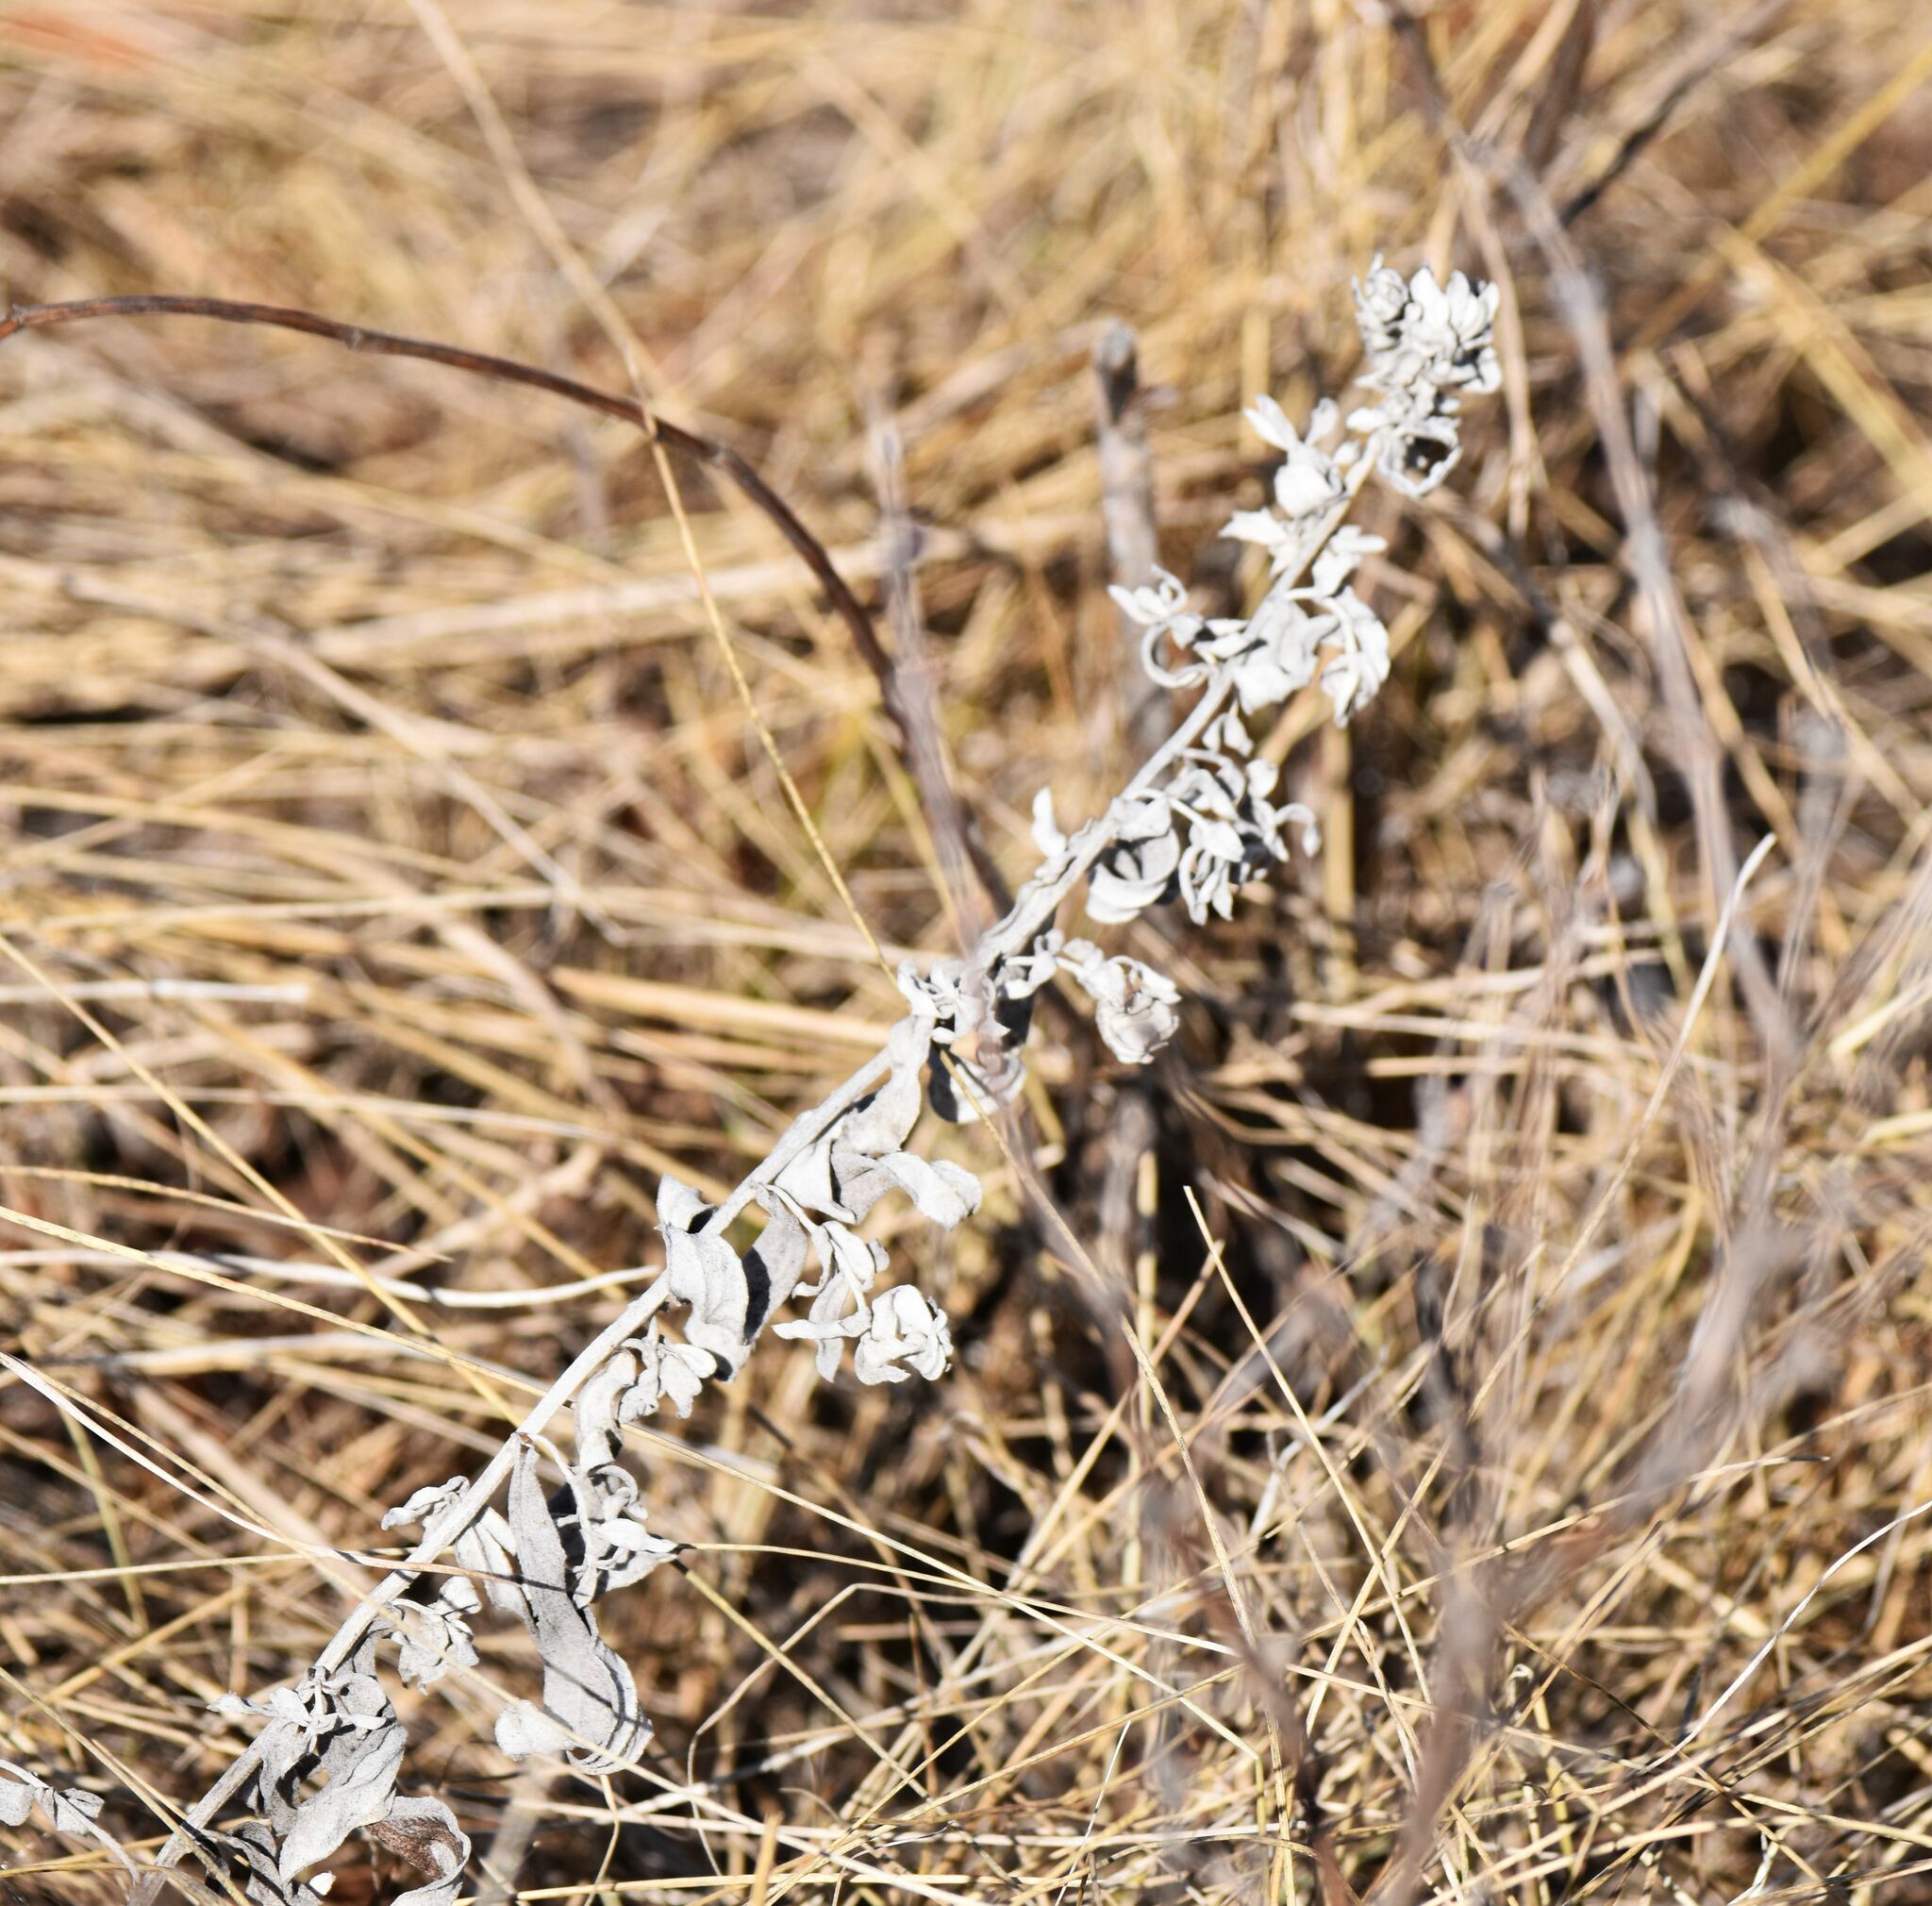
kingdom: Plantae
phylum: Tracheophyta
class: Magnoliopsida
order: Asterales
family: Asteraceae
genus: Artemisia
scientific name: Artemisia ludoviciana
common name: Western mugwort
